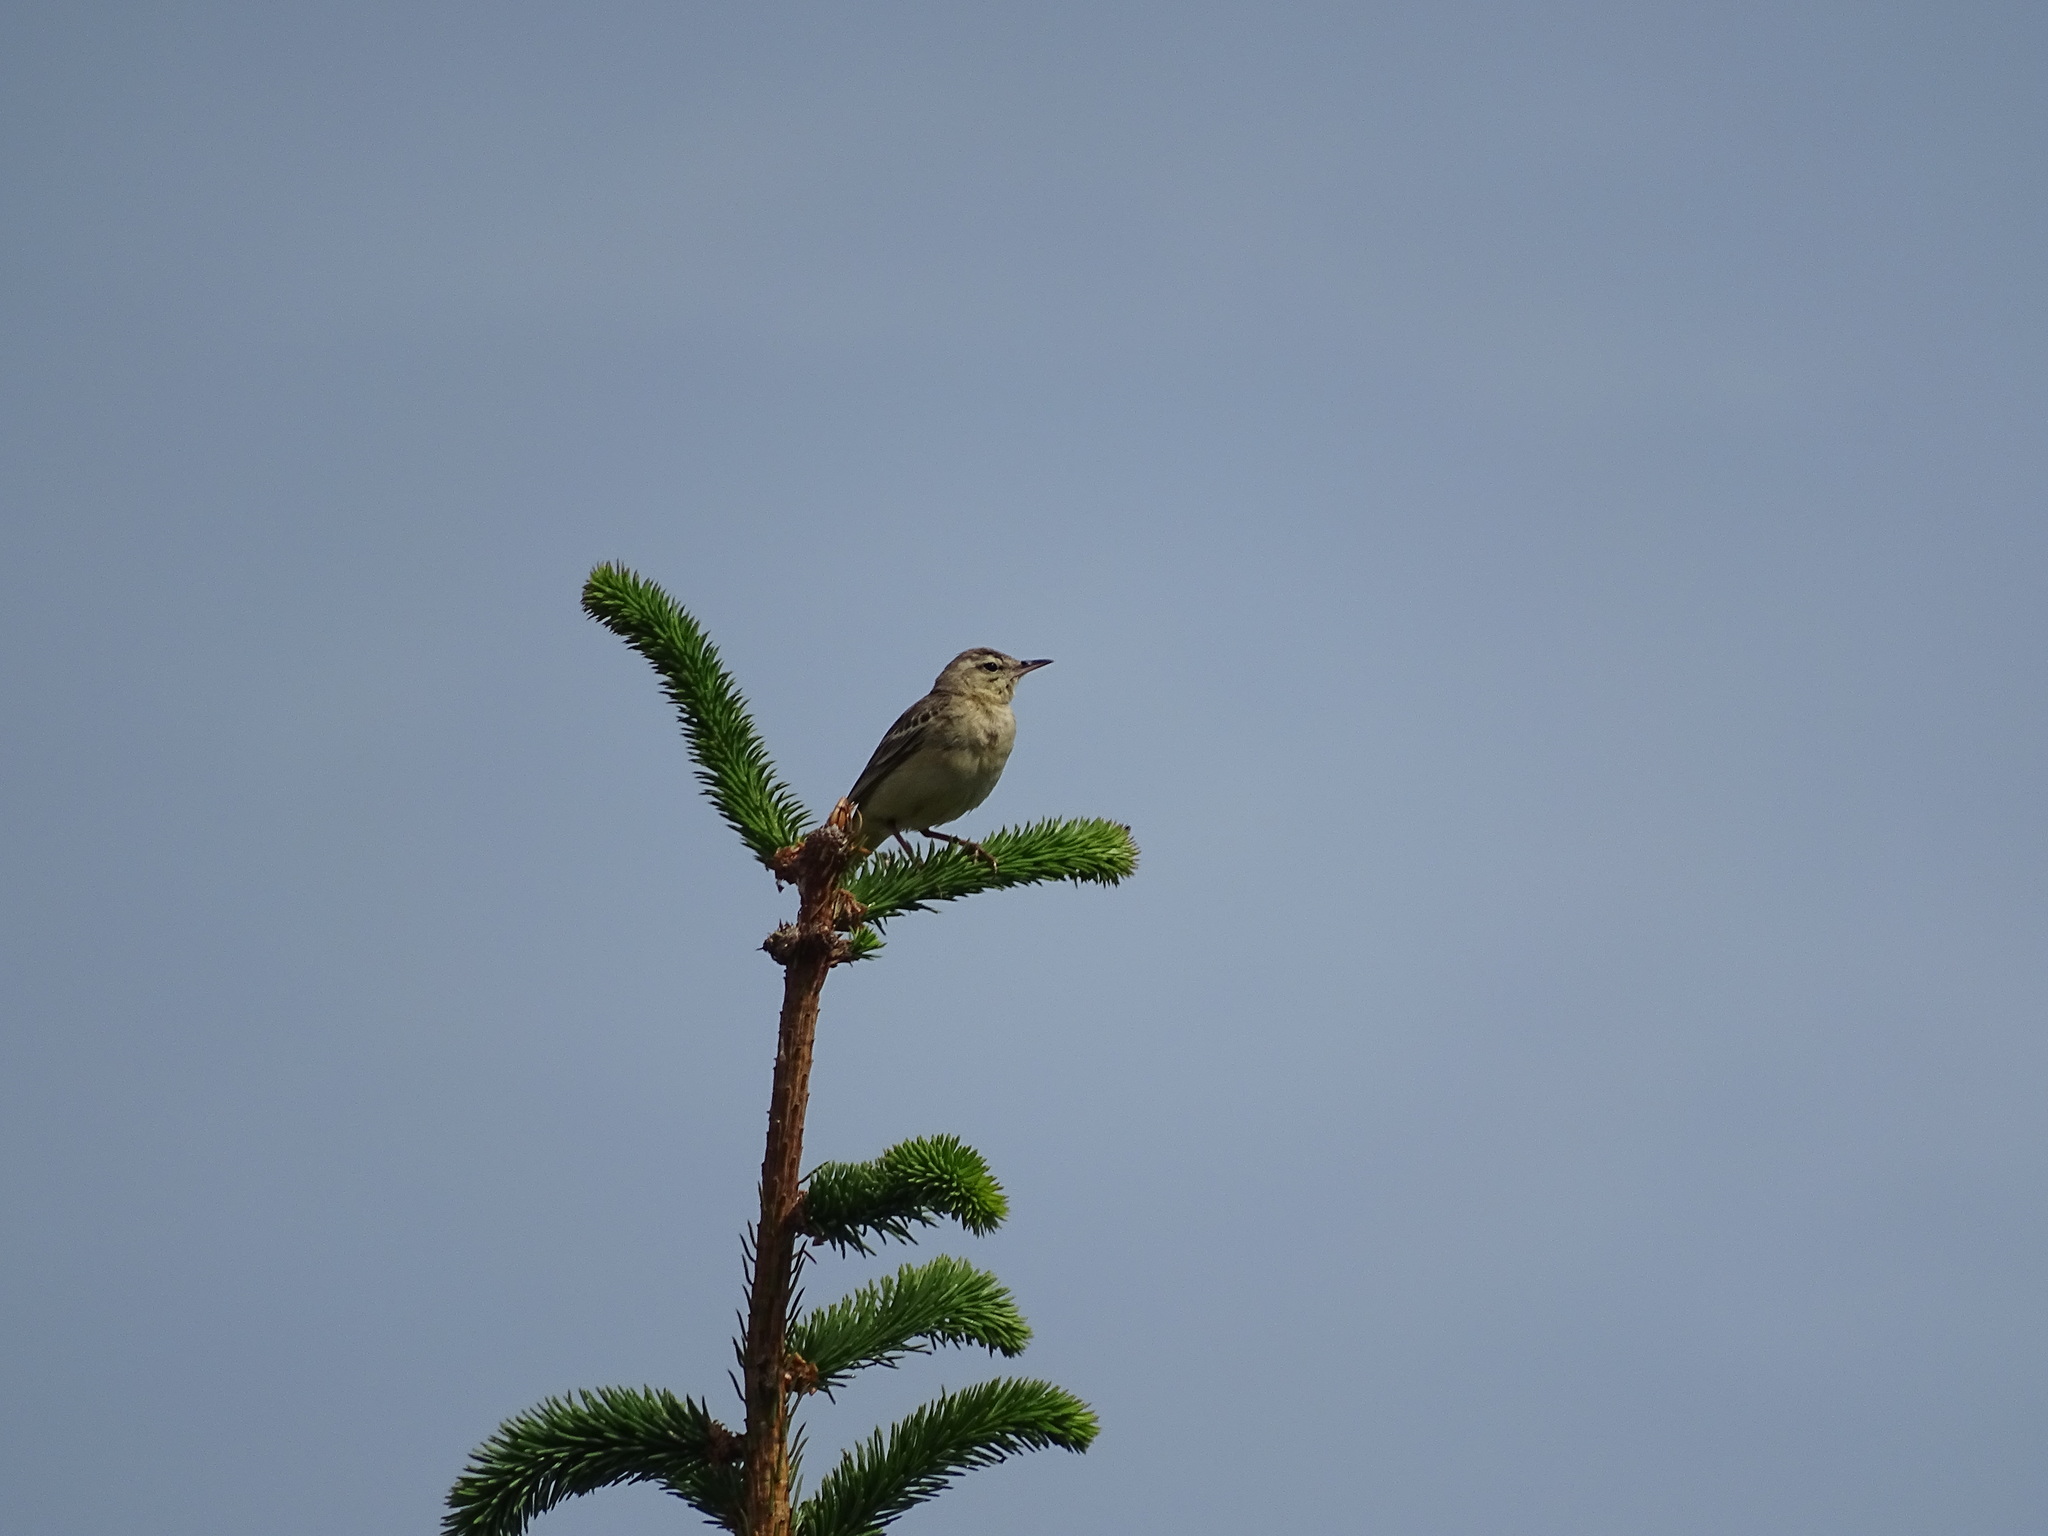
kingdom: Animalia
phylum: Chordata
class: Aves
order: Passeriformes
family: Motacillidae
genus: Anthus
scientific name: Anthus campestris
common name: Tawny pipit
